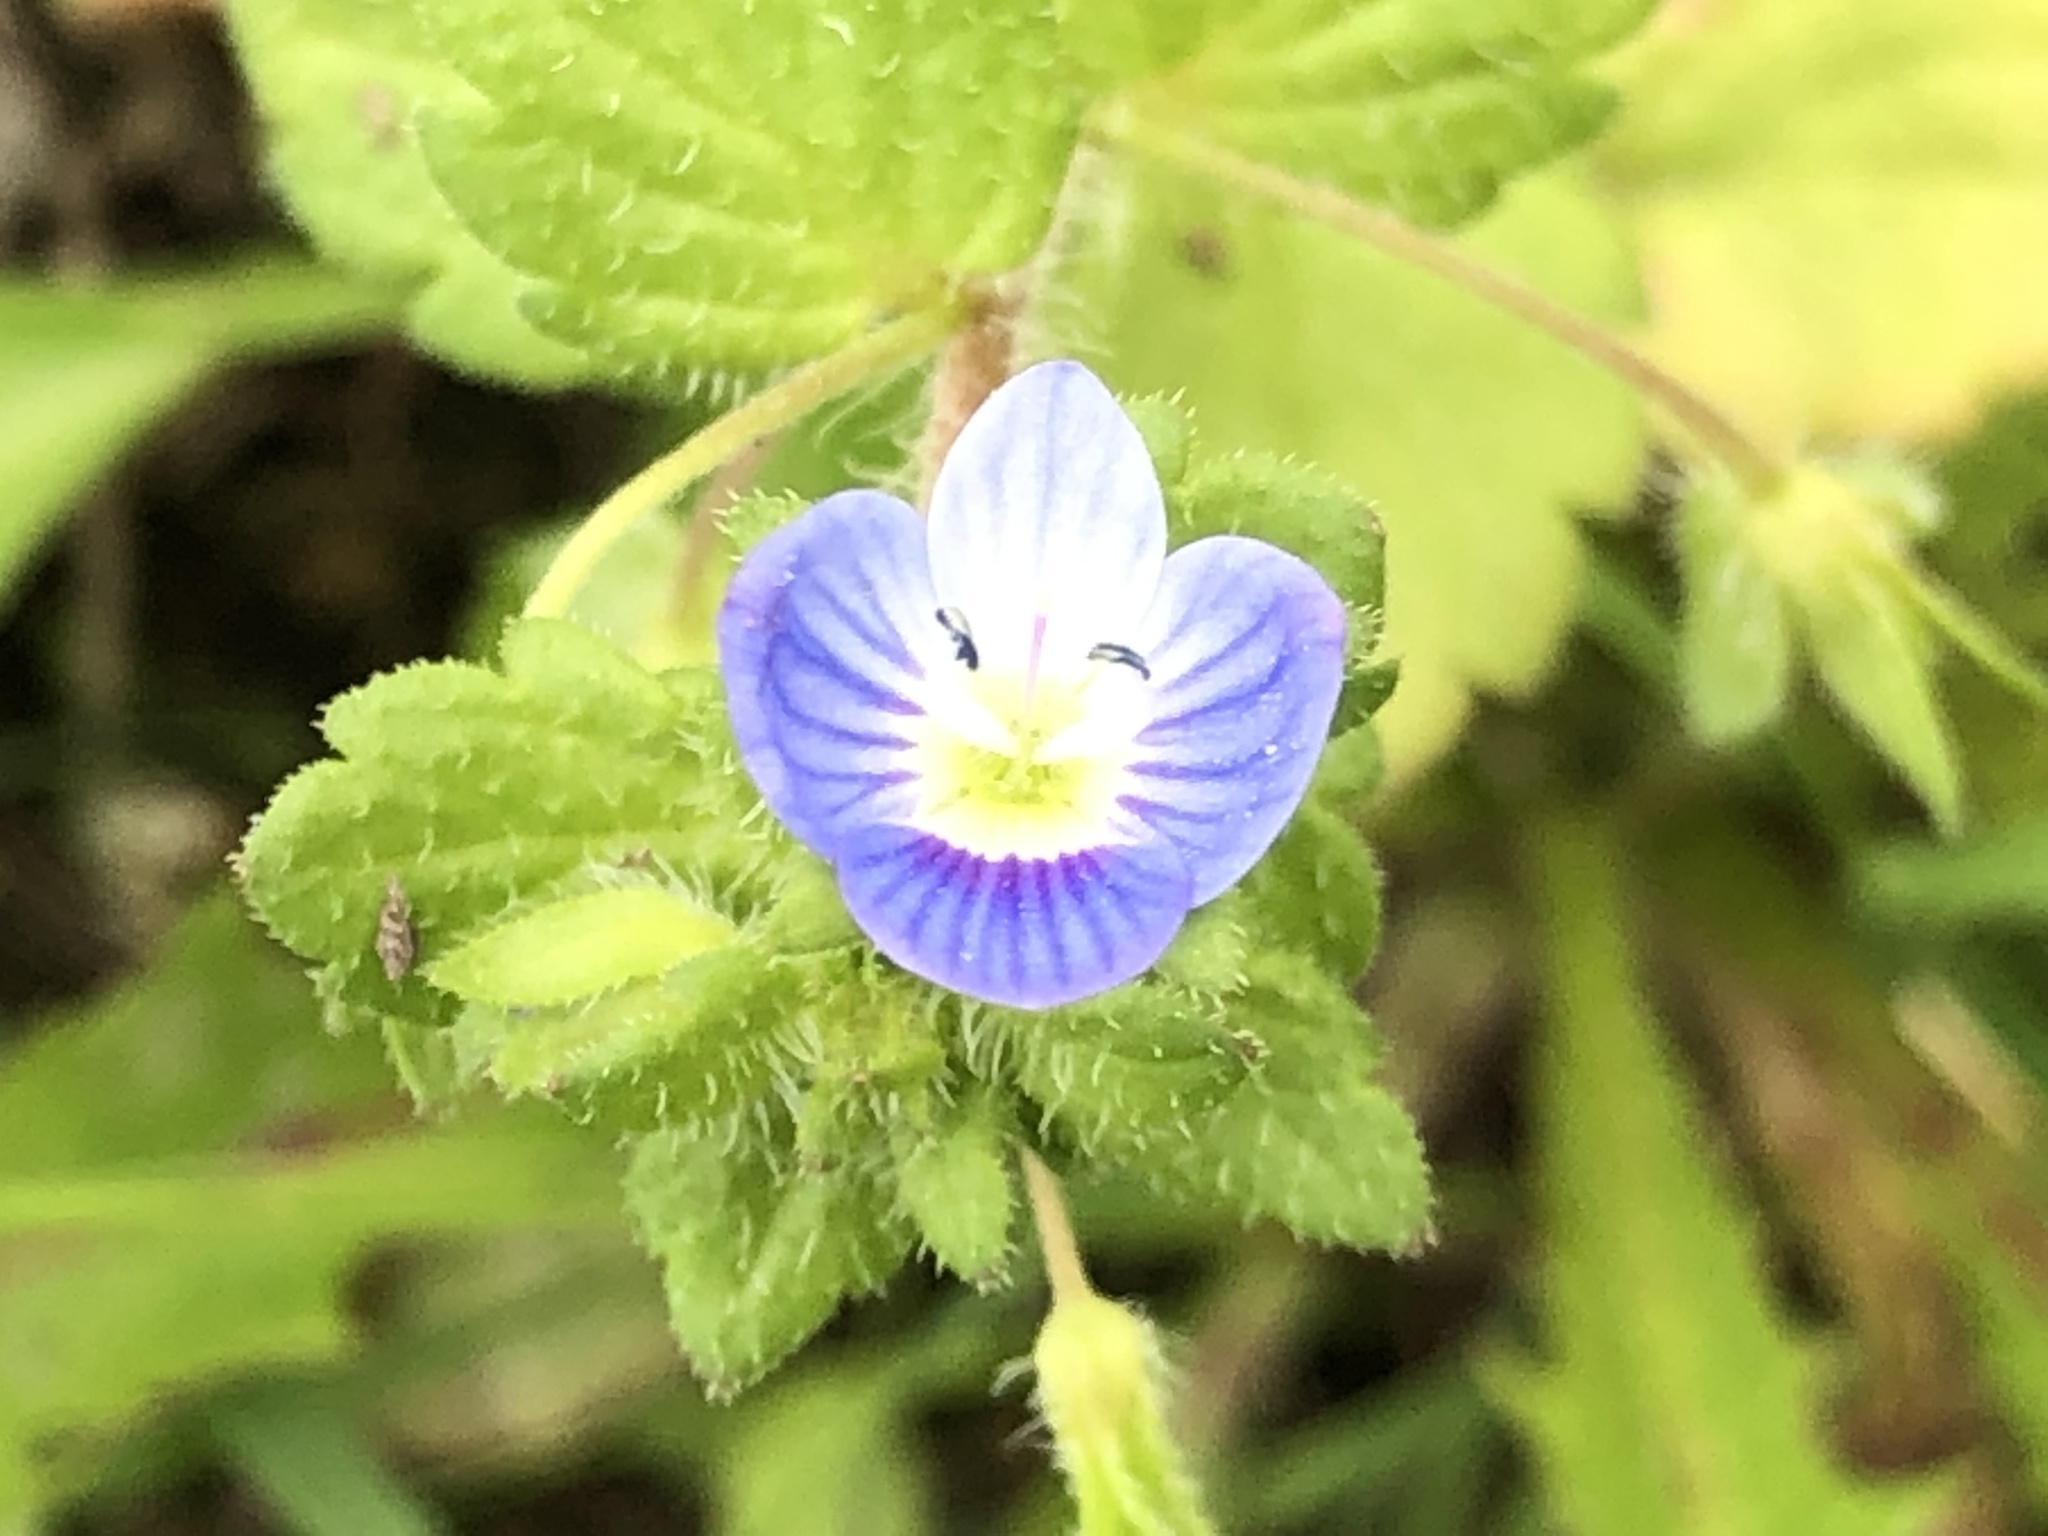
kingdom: Plantae
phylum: Tracheophyta
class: Magnoliopsida
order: Lamiales
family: Plantaginaceae
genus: Veronica
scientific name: Veronica persica
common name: Common field-speedwell
